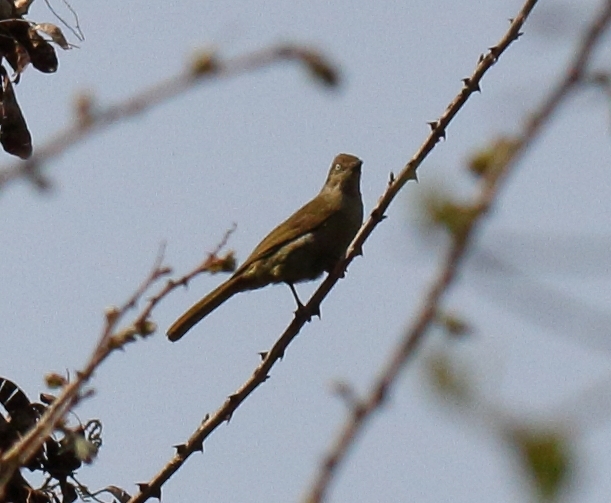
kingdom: Animalia
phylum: Chordata
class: Aves
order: Passeriformes
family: Pycnonotidae
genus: Andropadus
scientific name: Andropadus importunus
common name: Sombre greenbul
